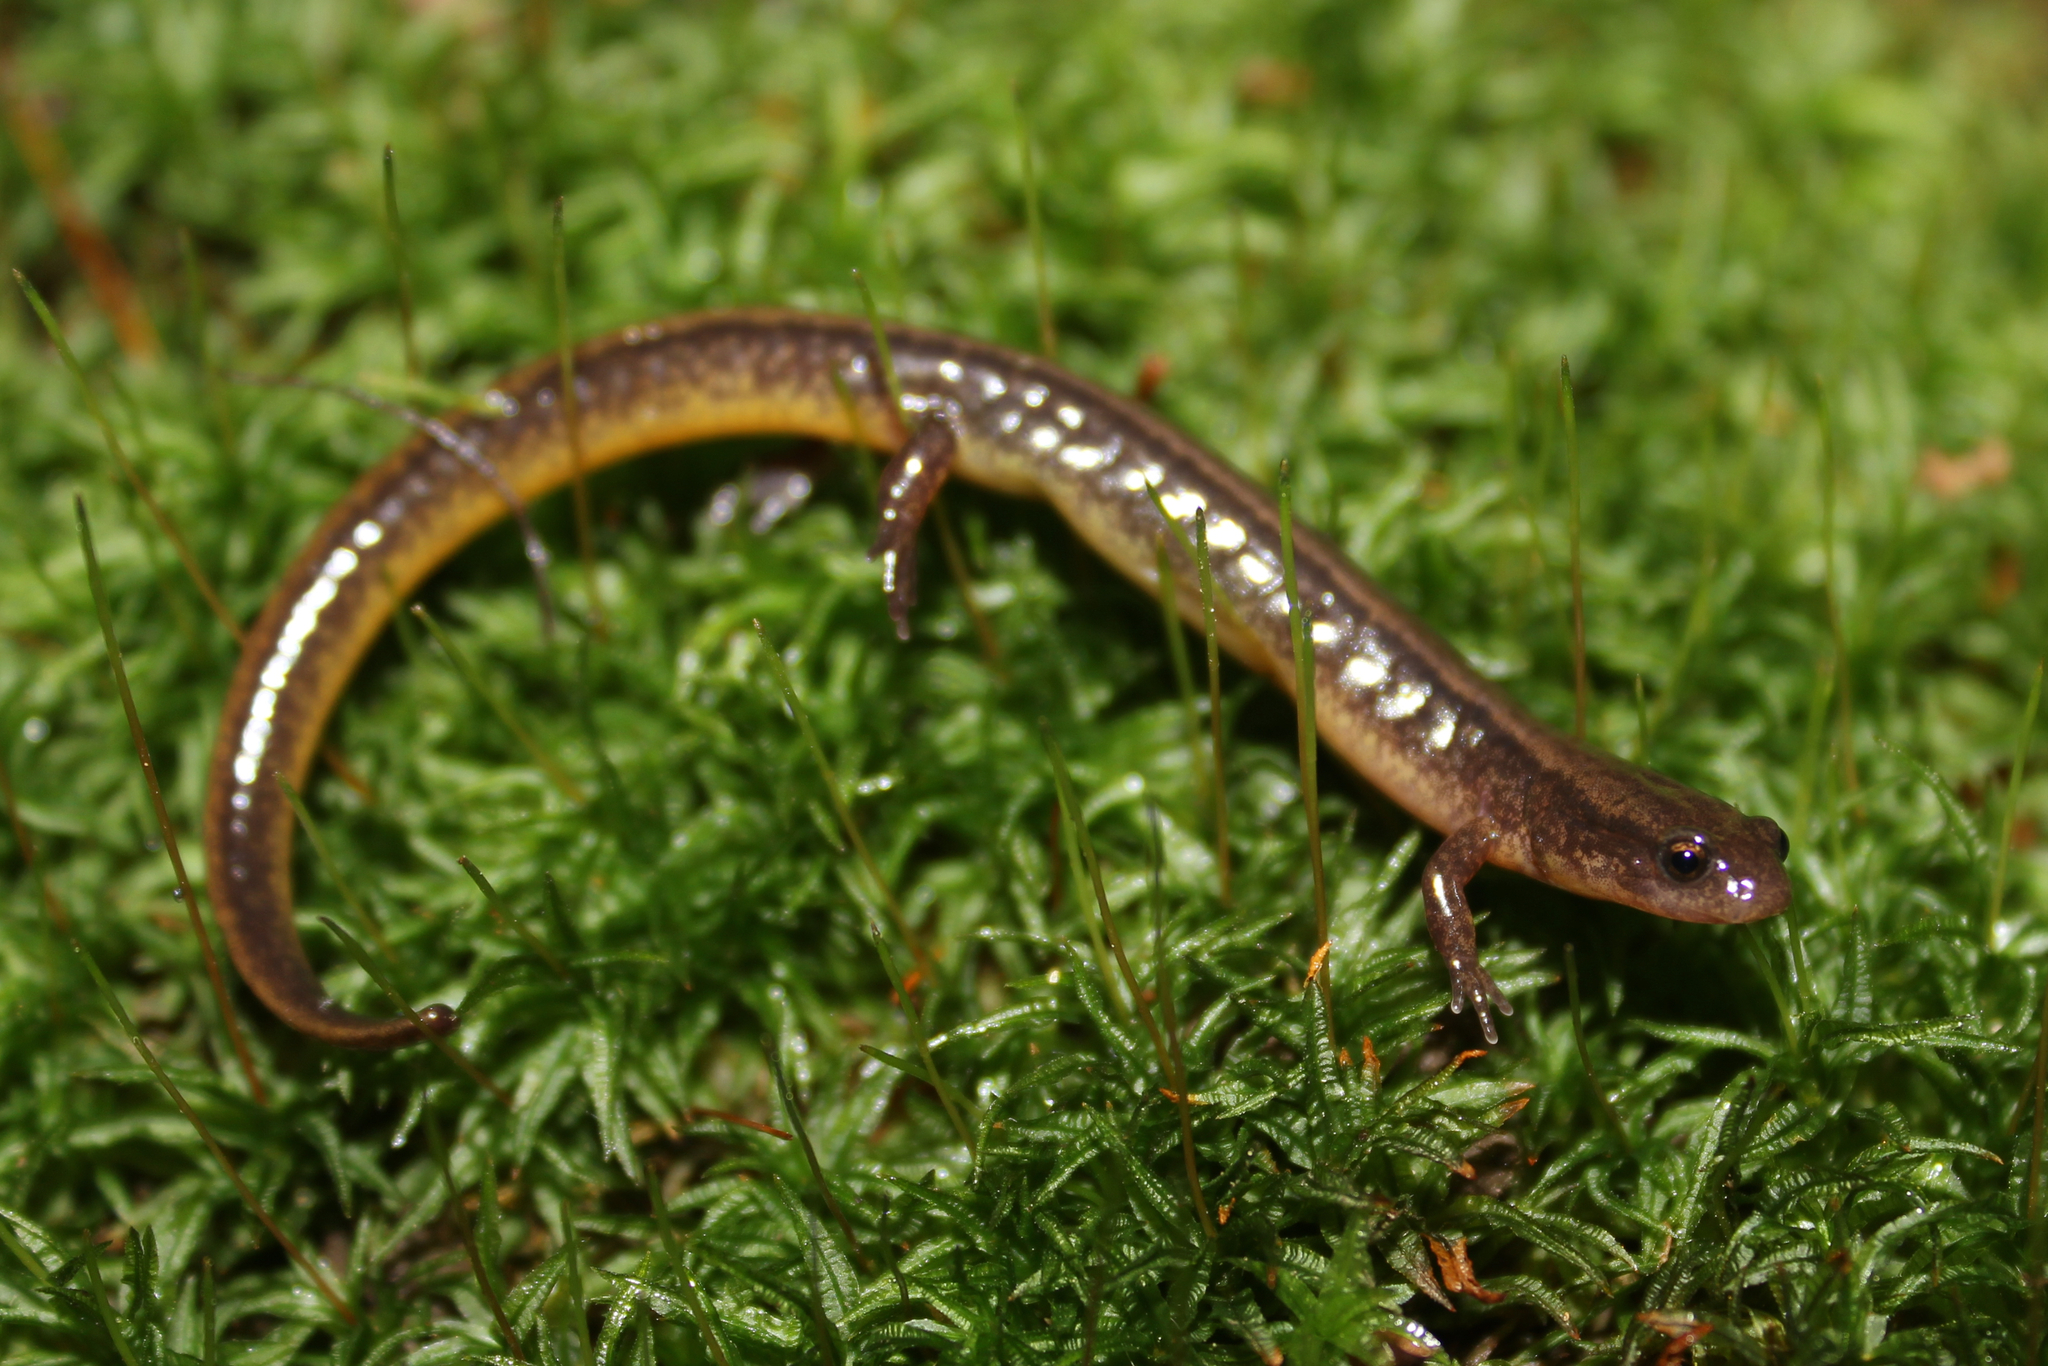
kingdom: Animalia
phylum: Chordata
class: Amphibia
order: Caudata
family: Plethodontidae
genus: Eurycea
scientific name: Eurycea bislineata
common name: Northern two-lined salamander
